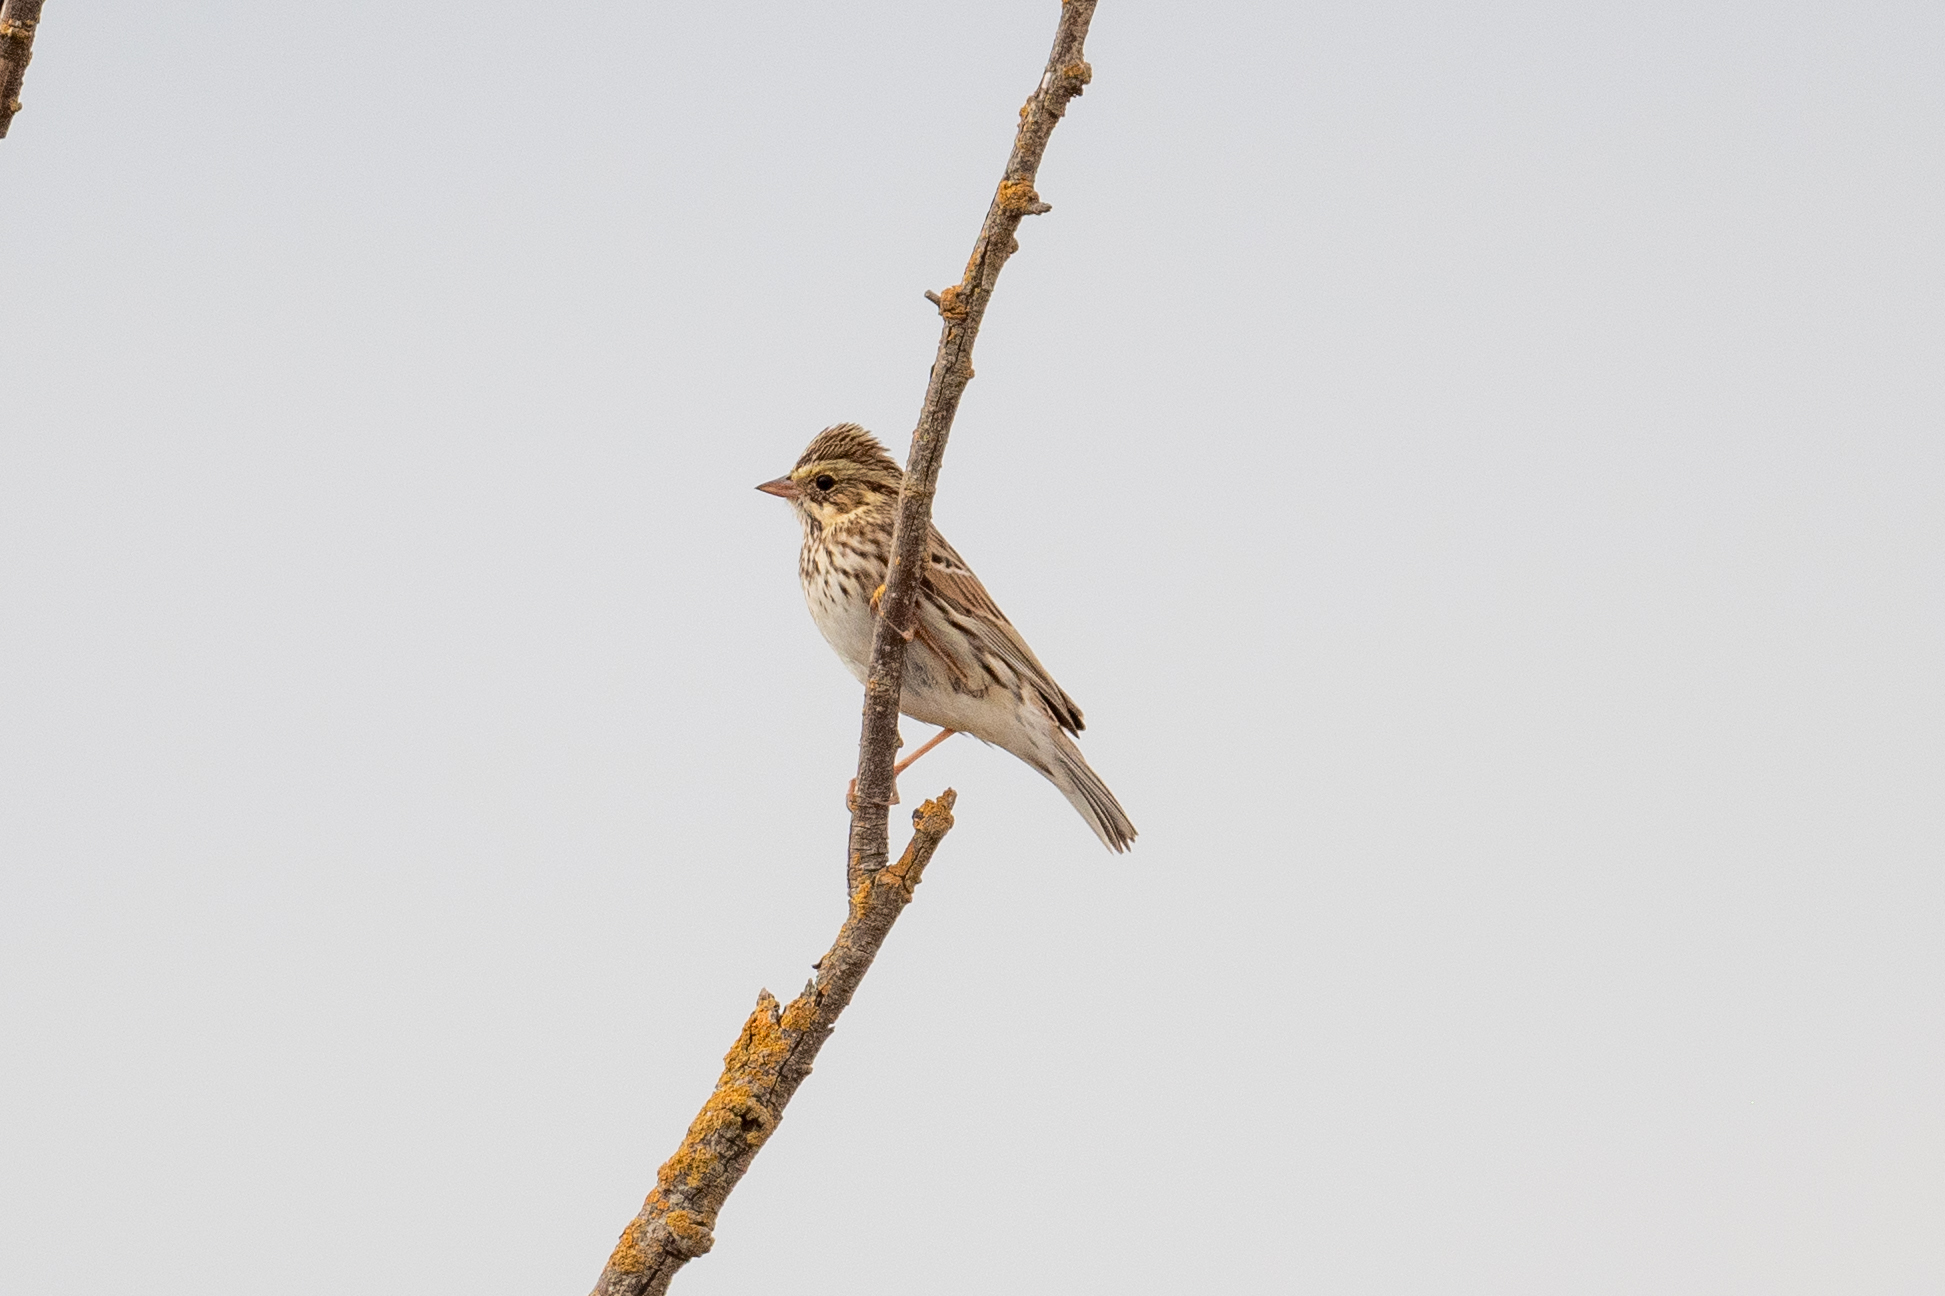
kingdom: Animalia
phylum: Chordata
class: Aves
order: Passeriformes
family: Passerellidae
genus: Passerculus
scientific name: Passerculus sandwichensis
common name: Savannah sparrow
